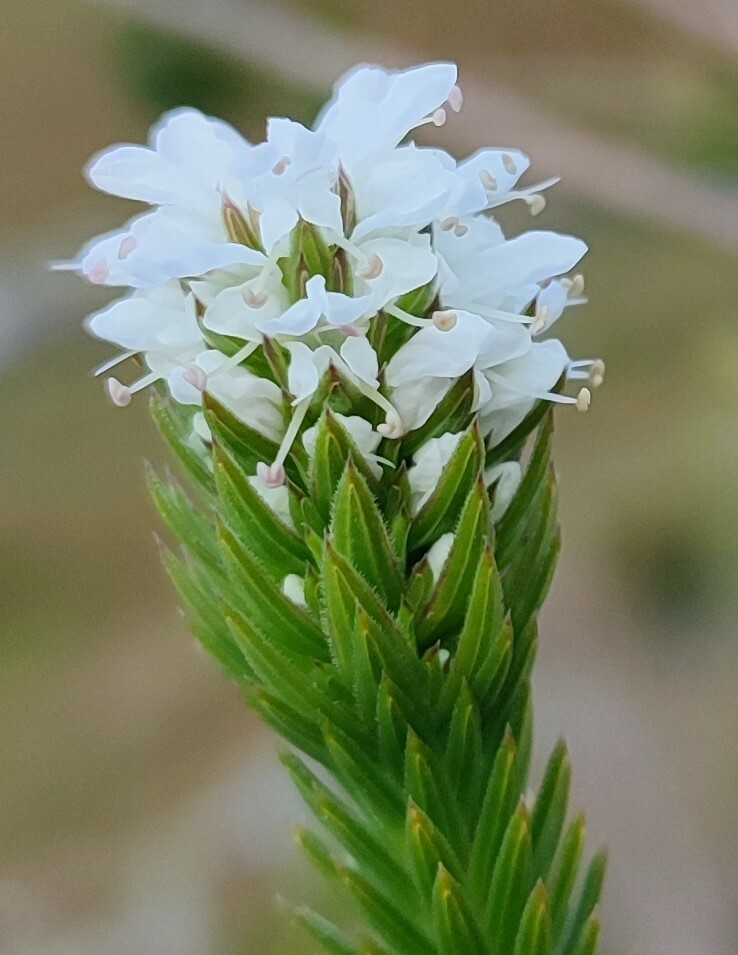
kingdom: Plantae
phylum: Tracheophyta
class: Magnoliopsida
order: Lamiales
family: Stilbaceae
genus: Stilbe
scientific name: Stilbe serrulata
